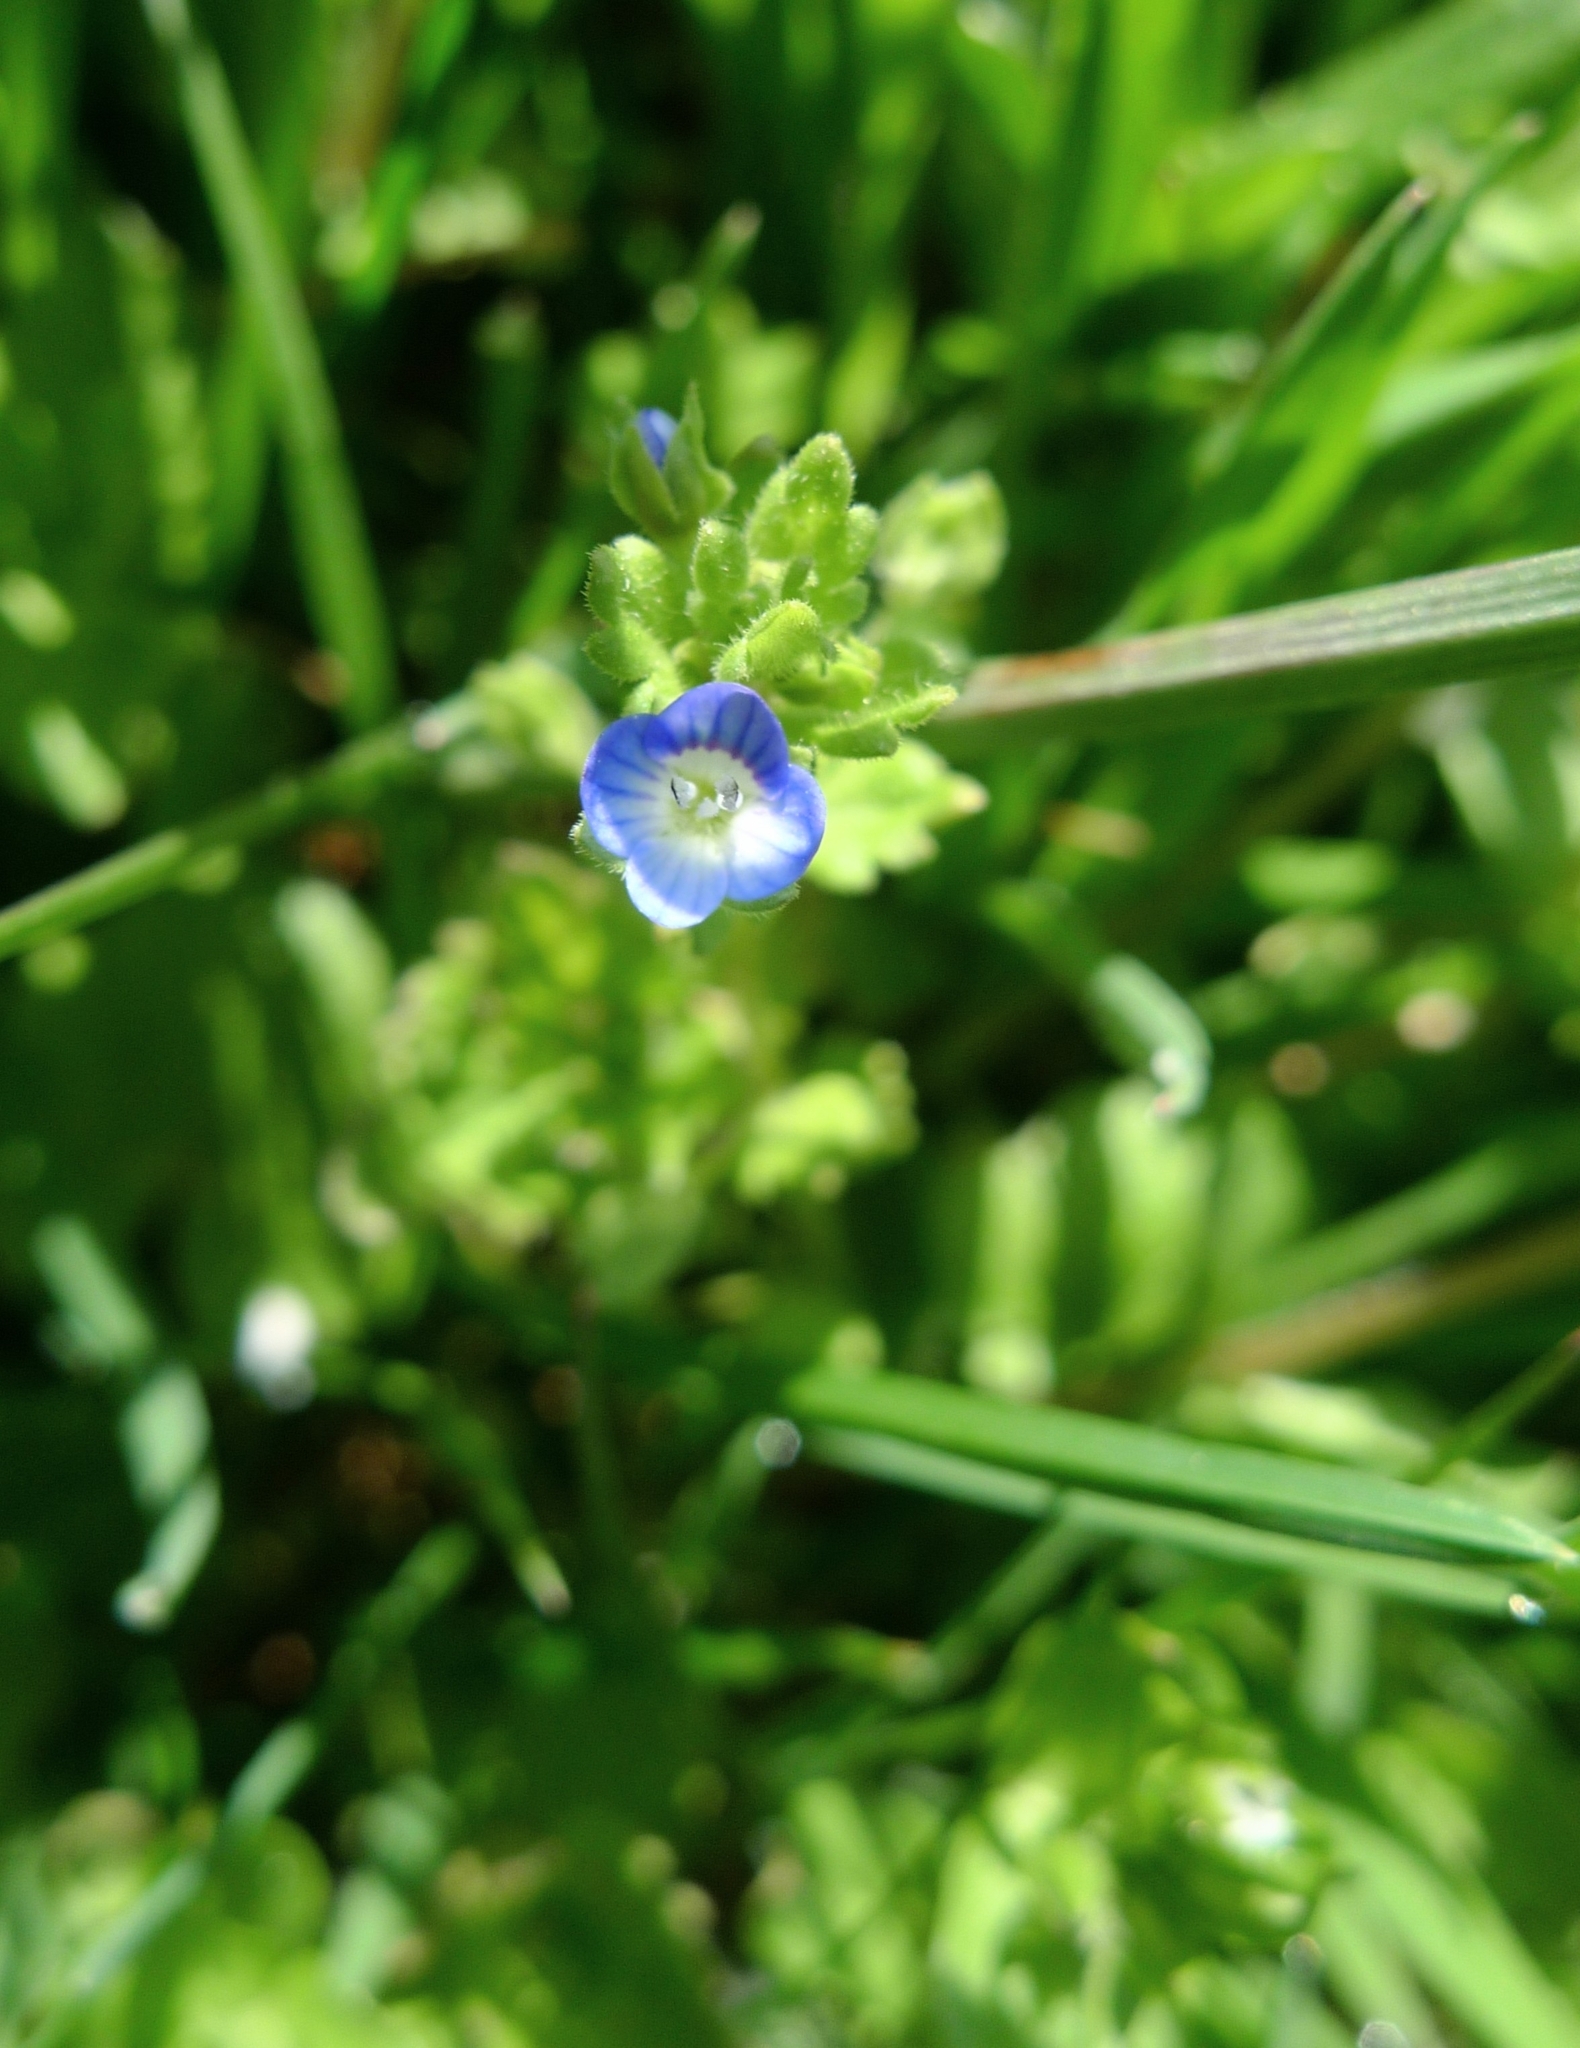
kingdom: Plantae
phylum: Tracheophyta
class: Magnoliopsida
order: Lamiales
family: Plantaginaceae
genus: Veronica
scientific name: Veronica persica
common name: Common field-speedwell
